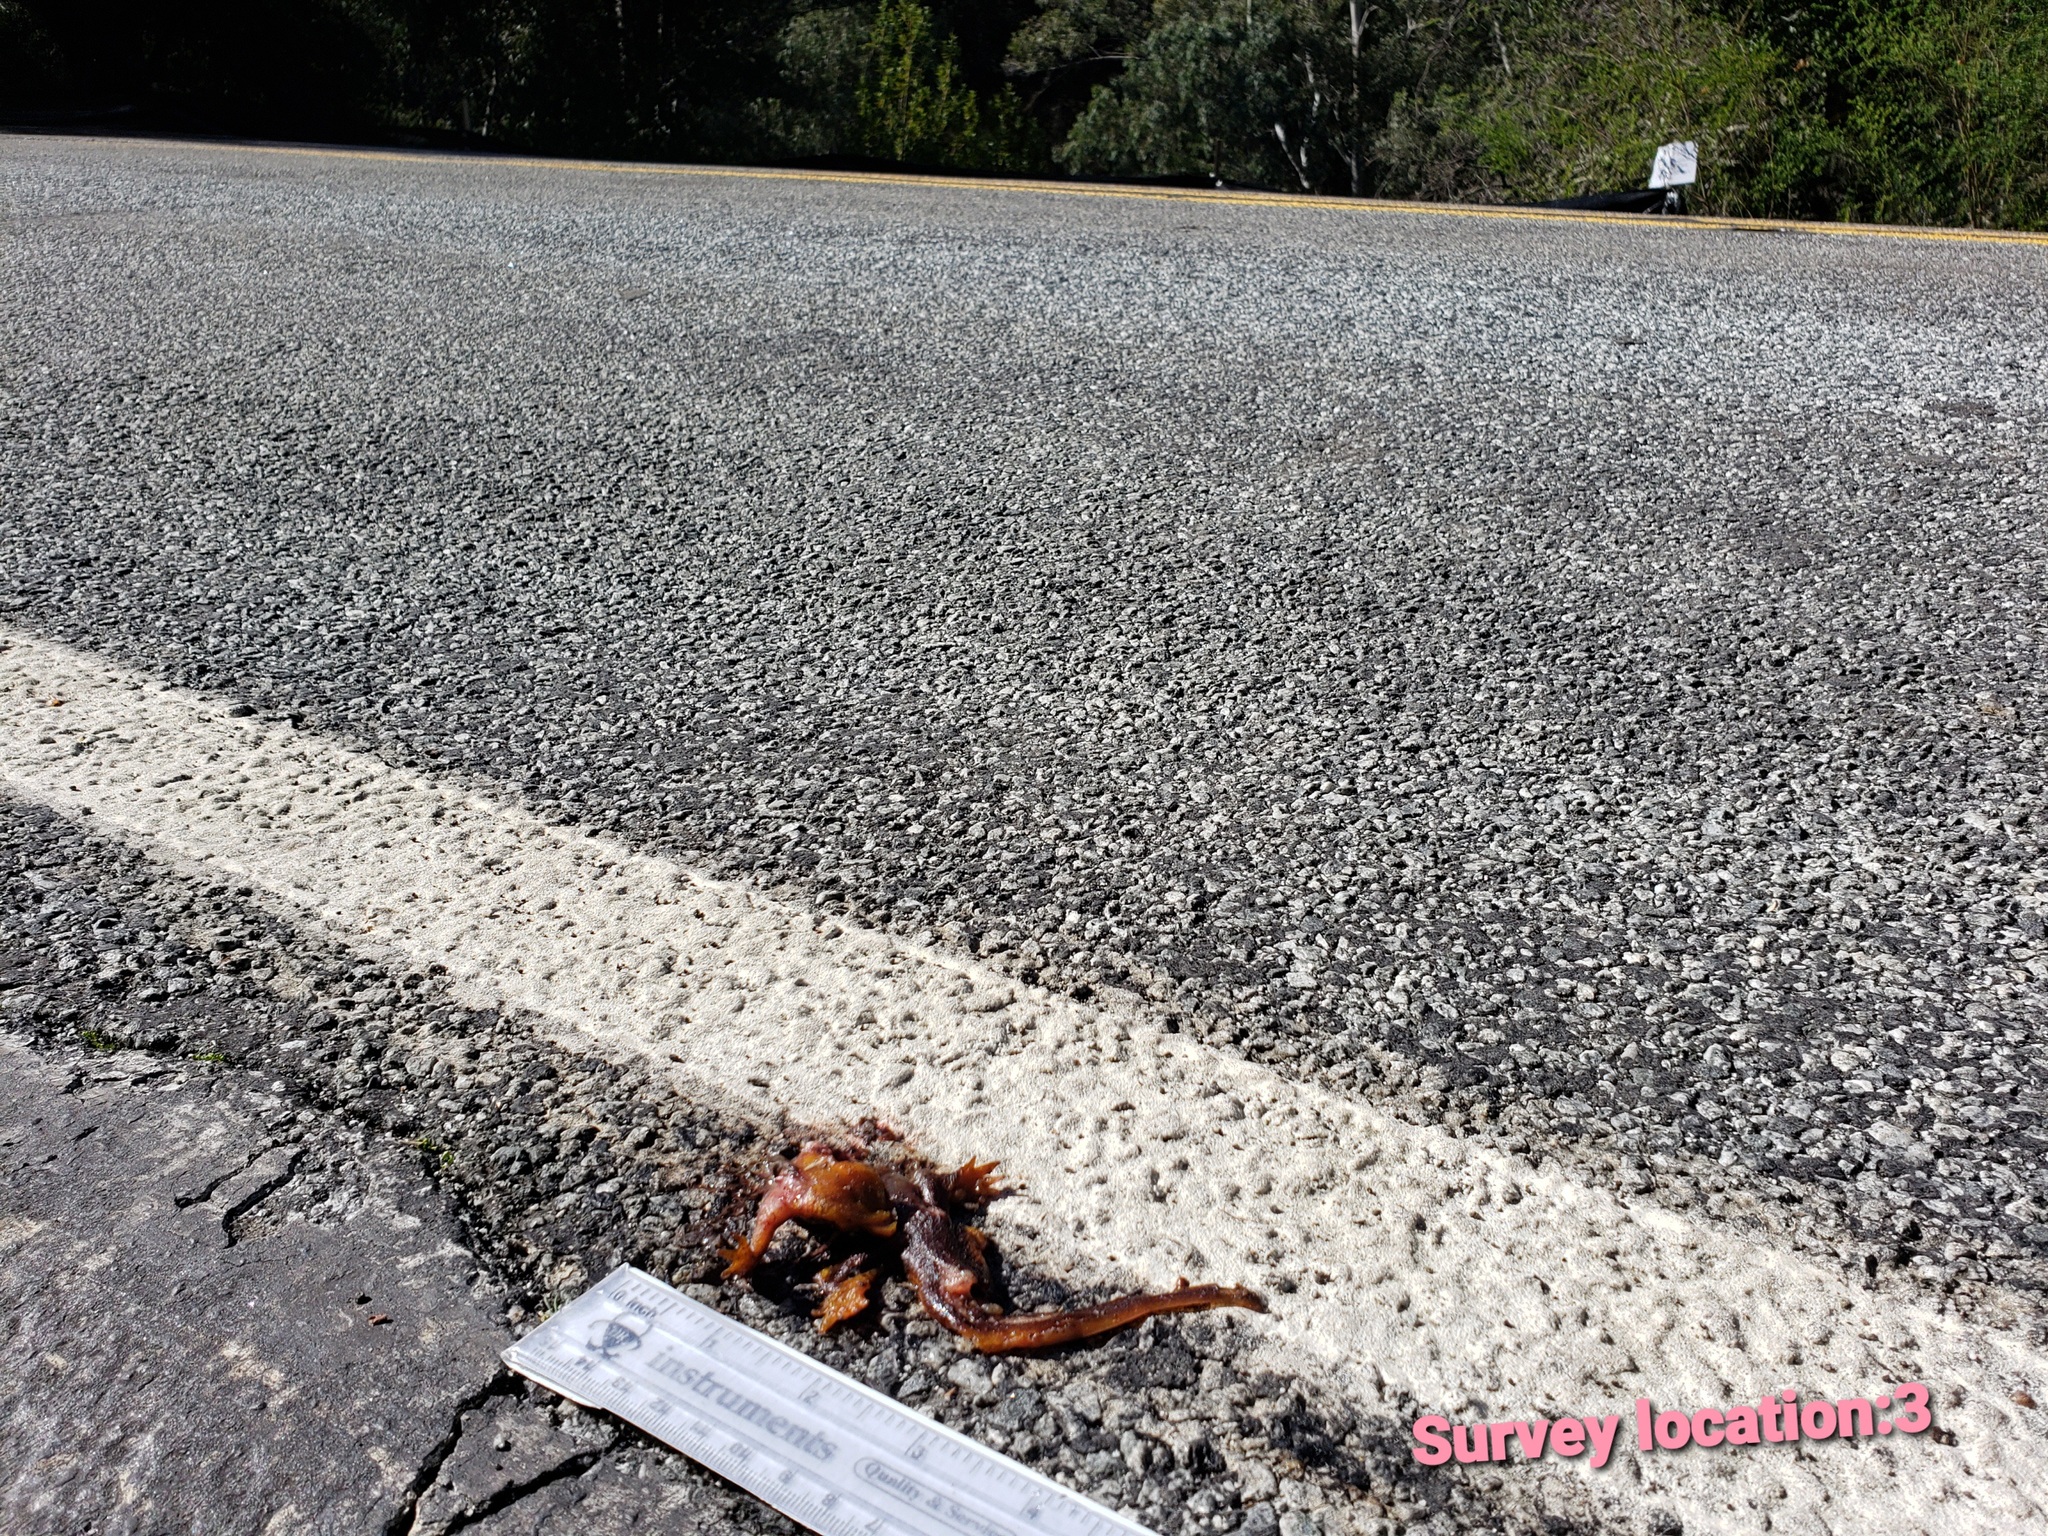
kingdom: Animalia
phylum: Chordata
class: Amphibia
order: Caudata
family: Salamandridae
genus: Taricha
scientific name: Taricha
